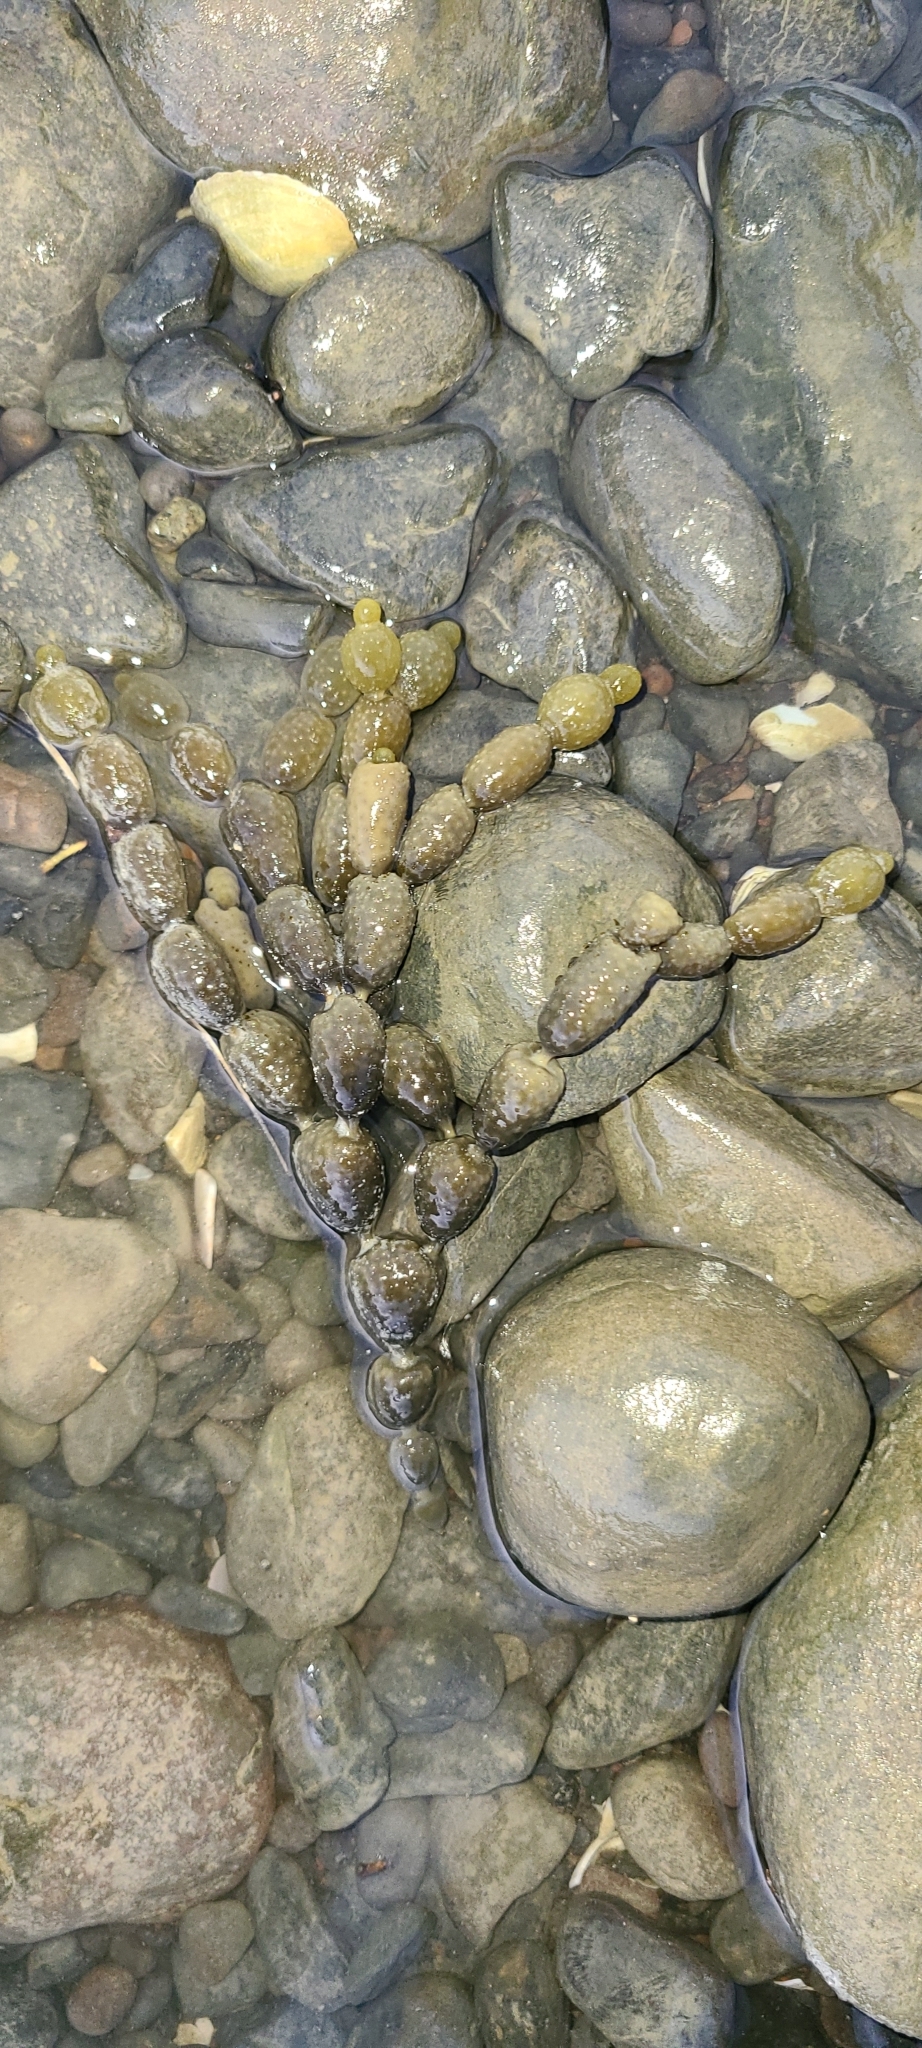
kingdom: Chromista
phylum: Ochrophyta
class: Phaeophyceae
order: Fucales
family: Hormosiraceae
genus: Hormosira
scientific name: Hormosira banksii
